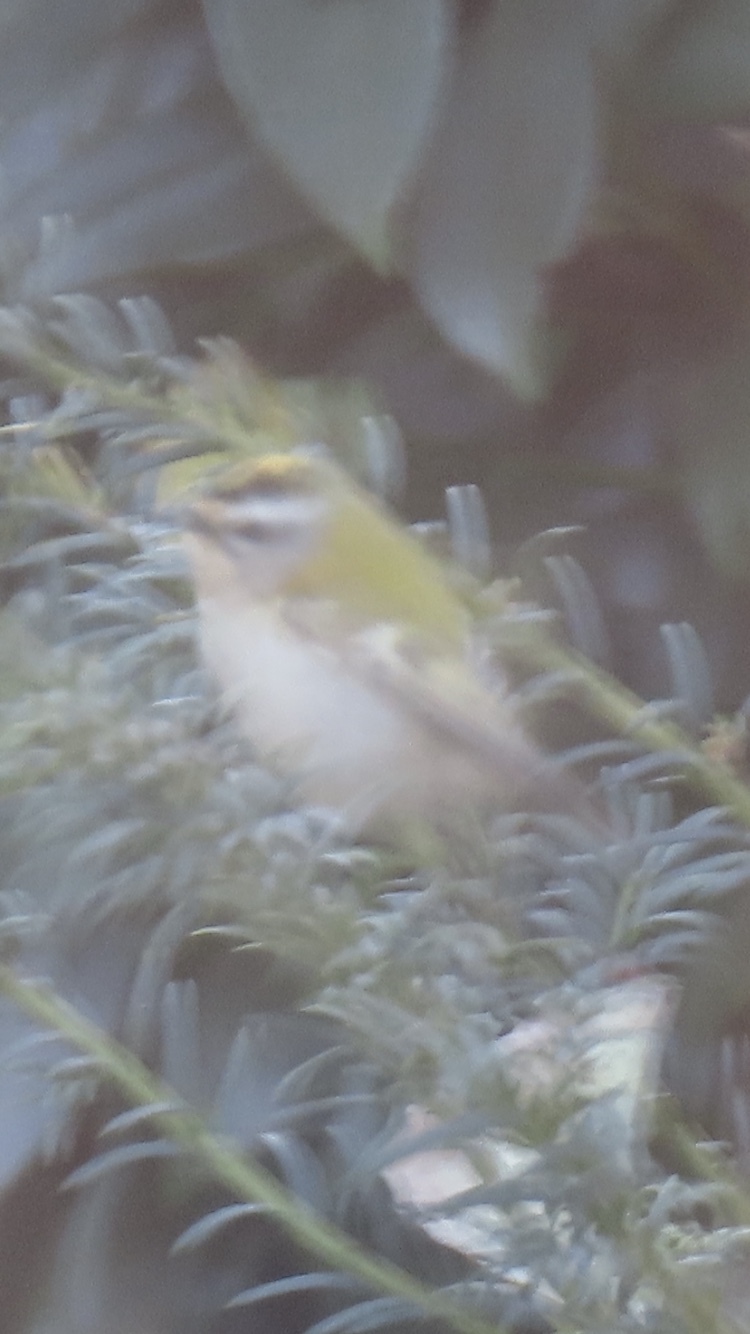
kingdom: Animalia
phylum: Chordata
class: Aves
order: Passeriformes
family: Regulidae
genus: Regulus
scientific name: Regulus ignicapilla
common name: Firecrest
